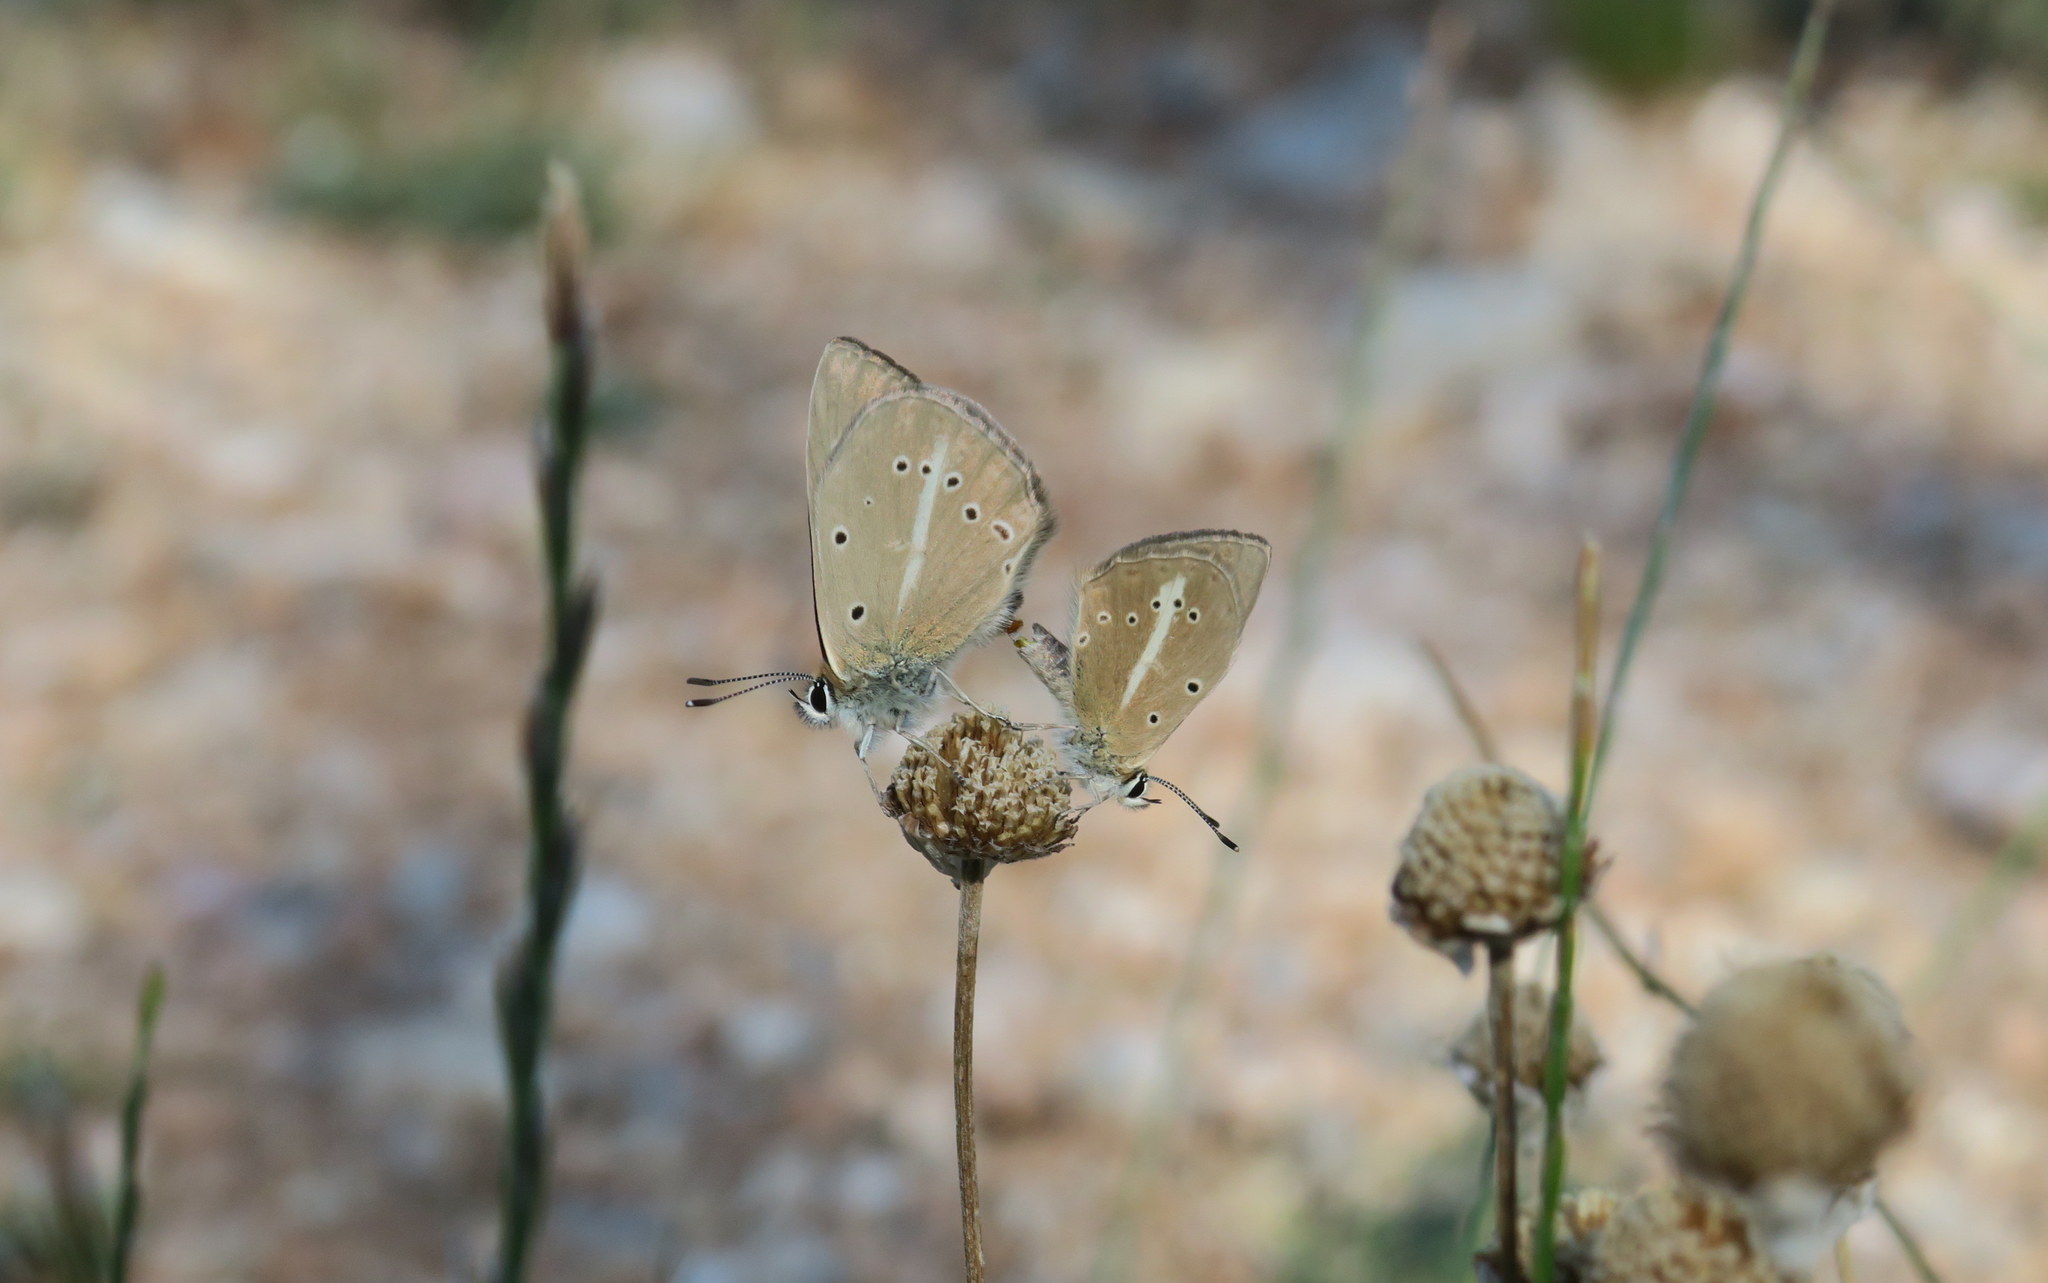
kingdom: Animalia
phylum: Arthropoda
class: Insecta
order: Lepidoptera
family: Lycaenidae
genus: Polyommatus
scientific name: Polyommatus ripartii
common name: Ripart's anomalous blue
